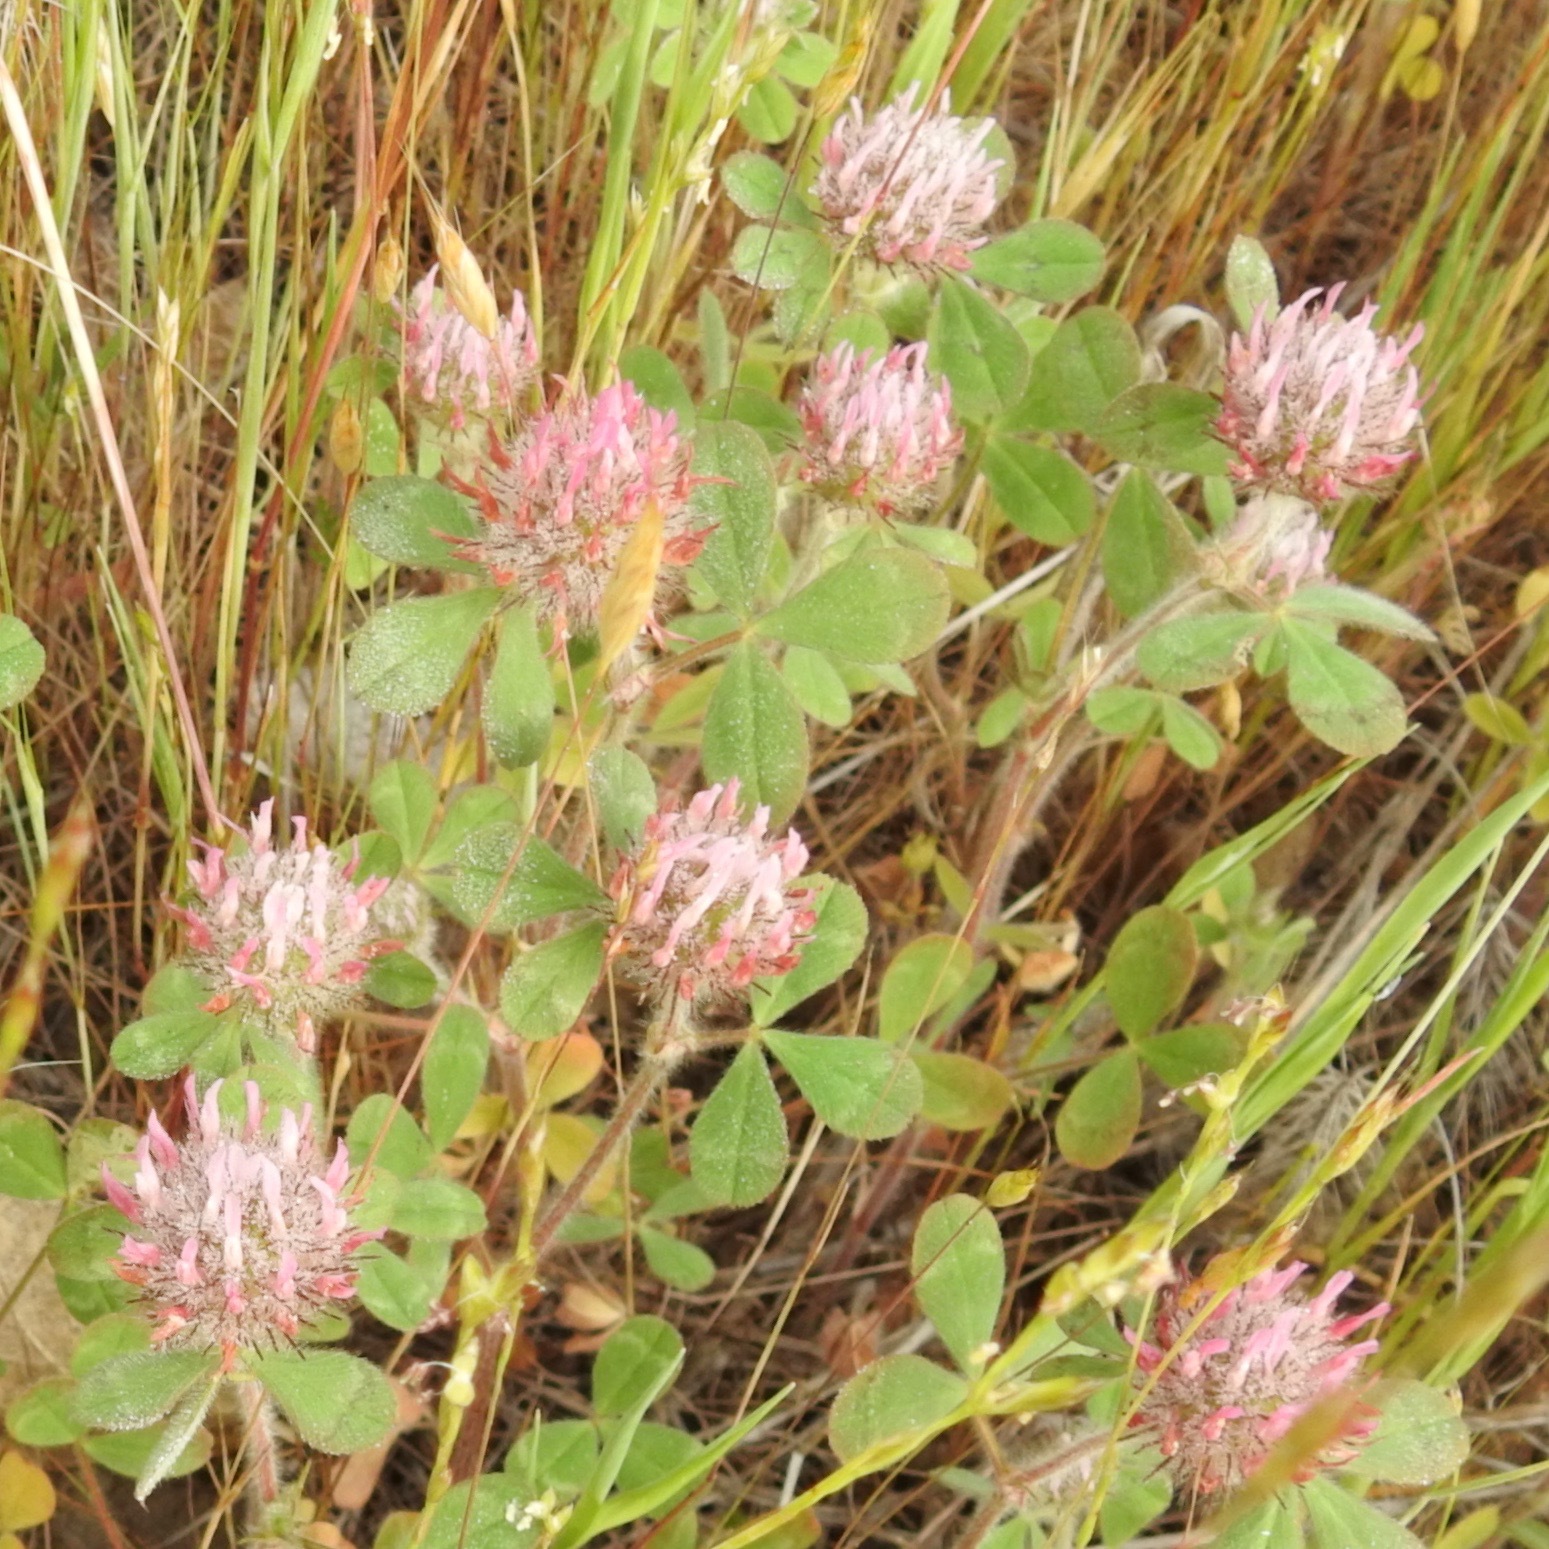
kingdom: Plantae
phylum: Tracheophyta
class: Magnoliopsida
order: Fabales
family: Fabaceae
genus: Trifolium
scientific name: Trifolium hirtum
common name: Rose clover
